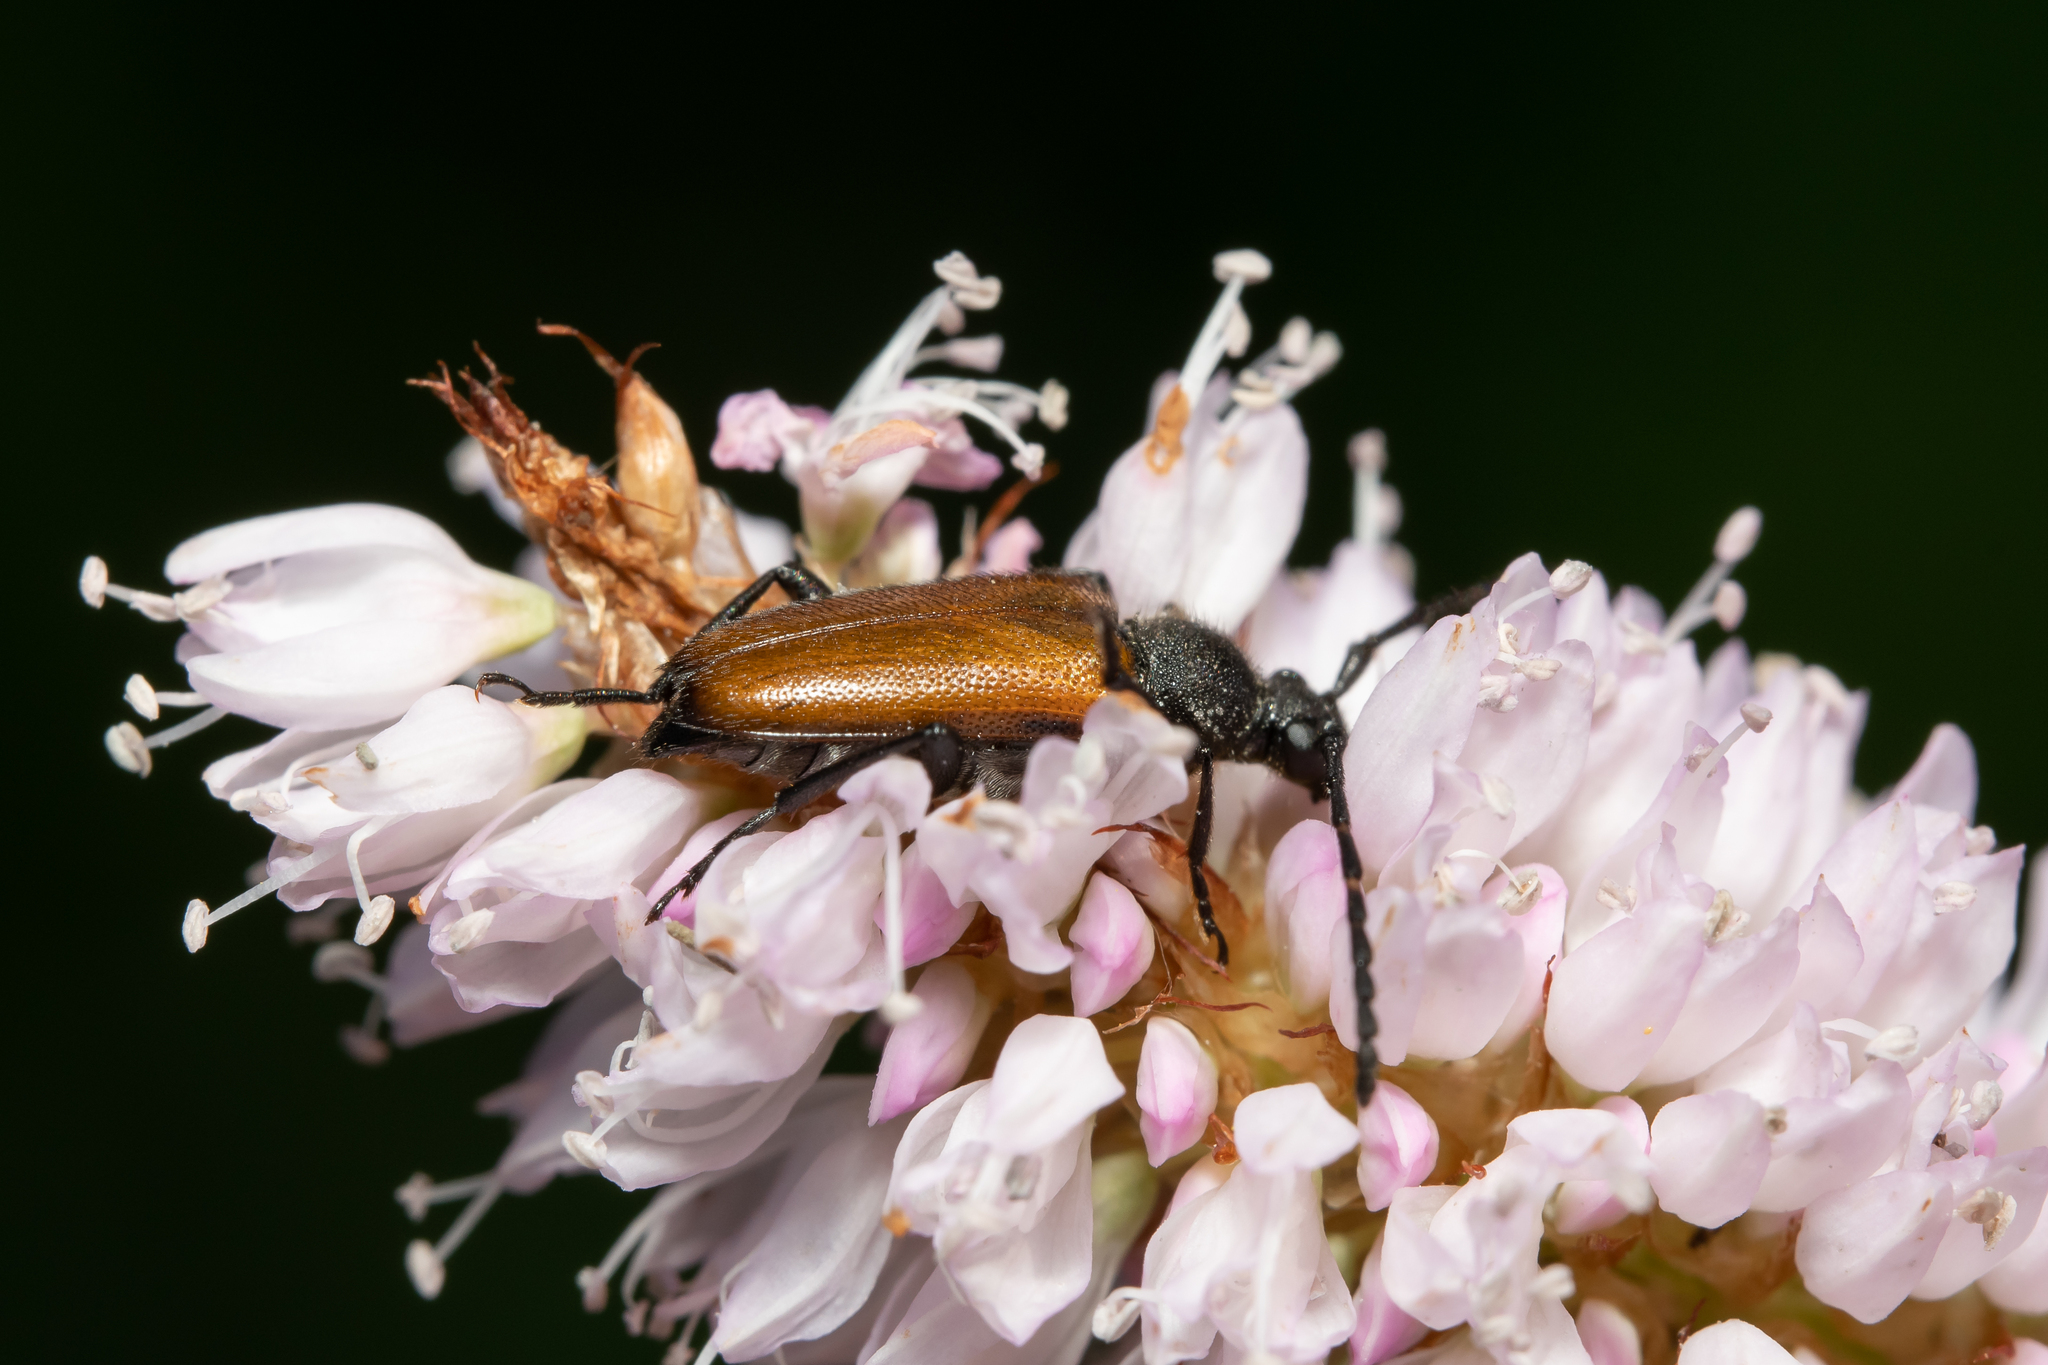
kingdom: Animalia
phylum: Arthropoda
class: Insecta
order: Coleoptera
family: Cerambycidae
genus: Paracorymbia
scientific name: Paracorymbia maculicornis
